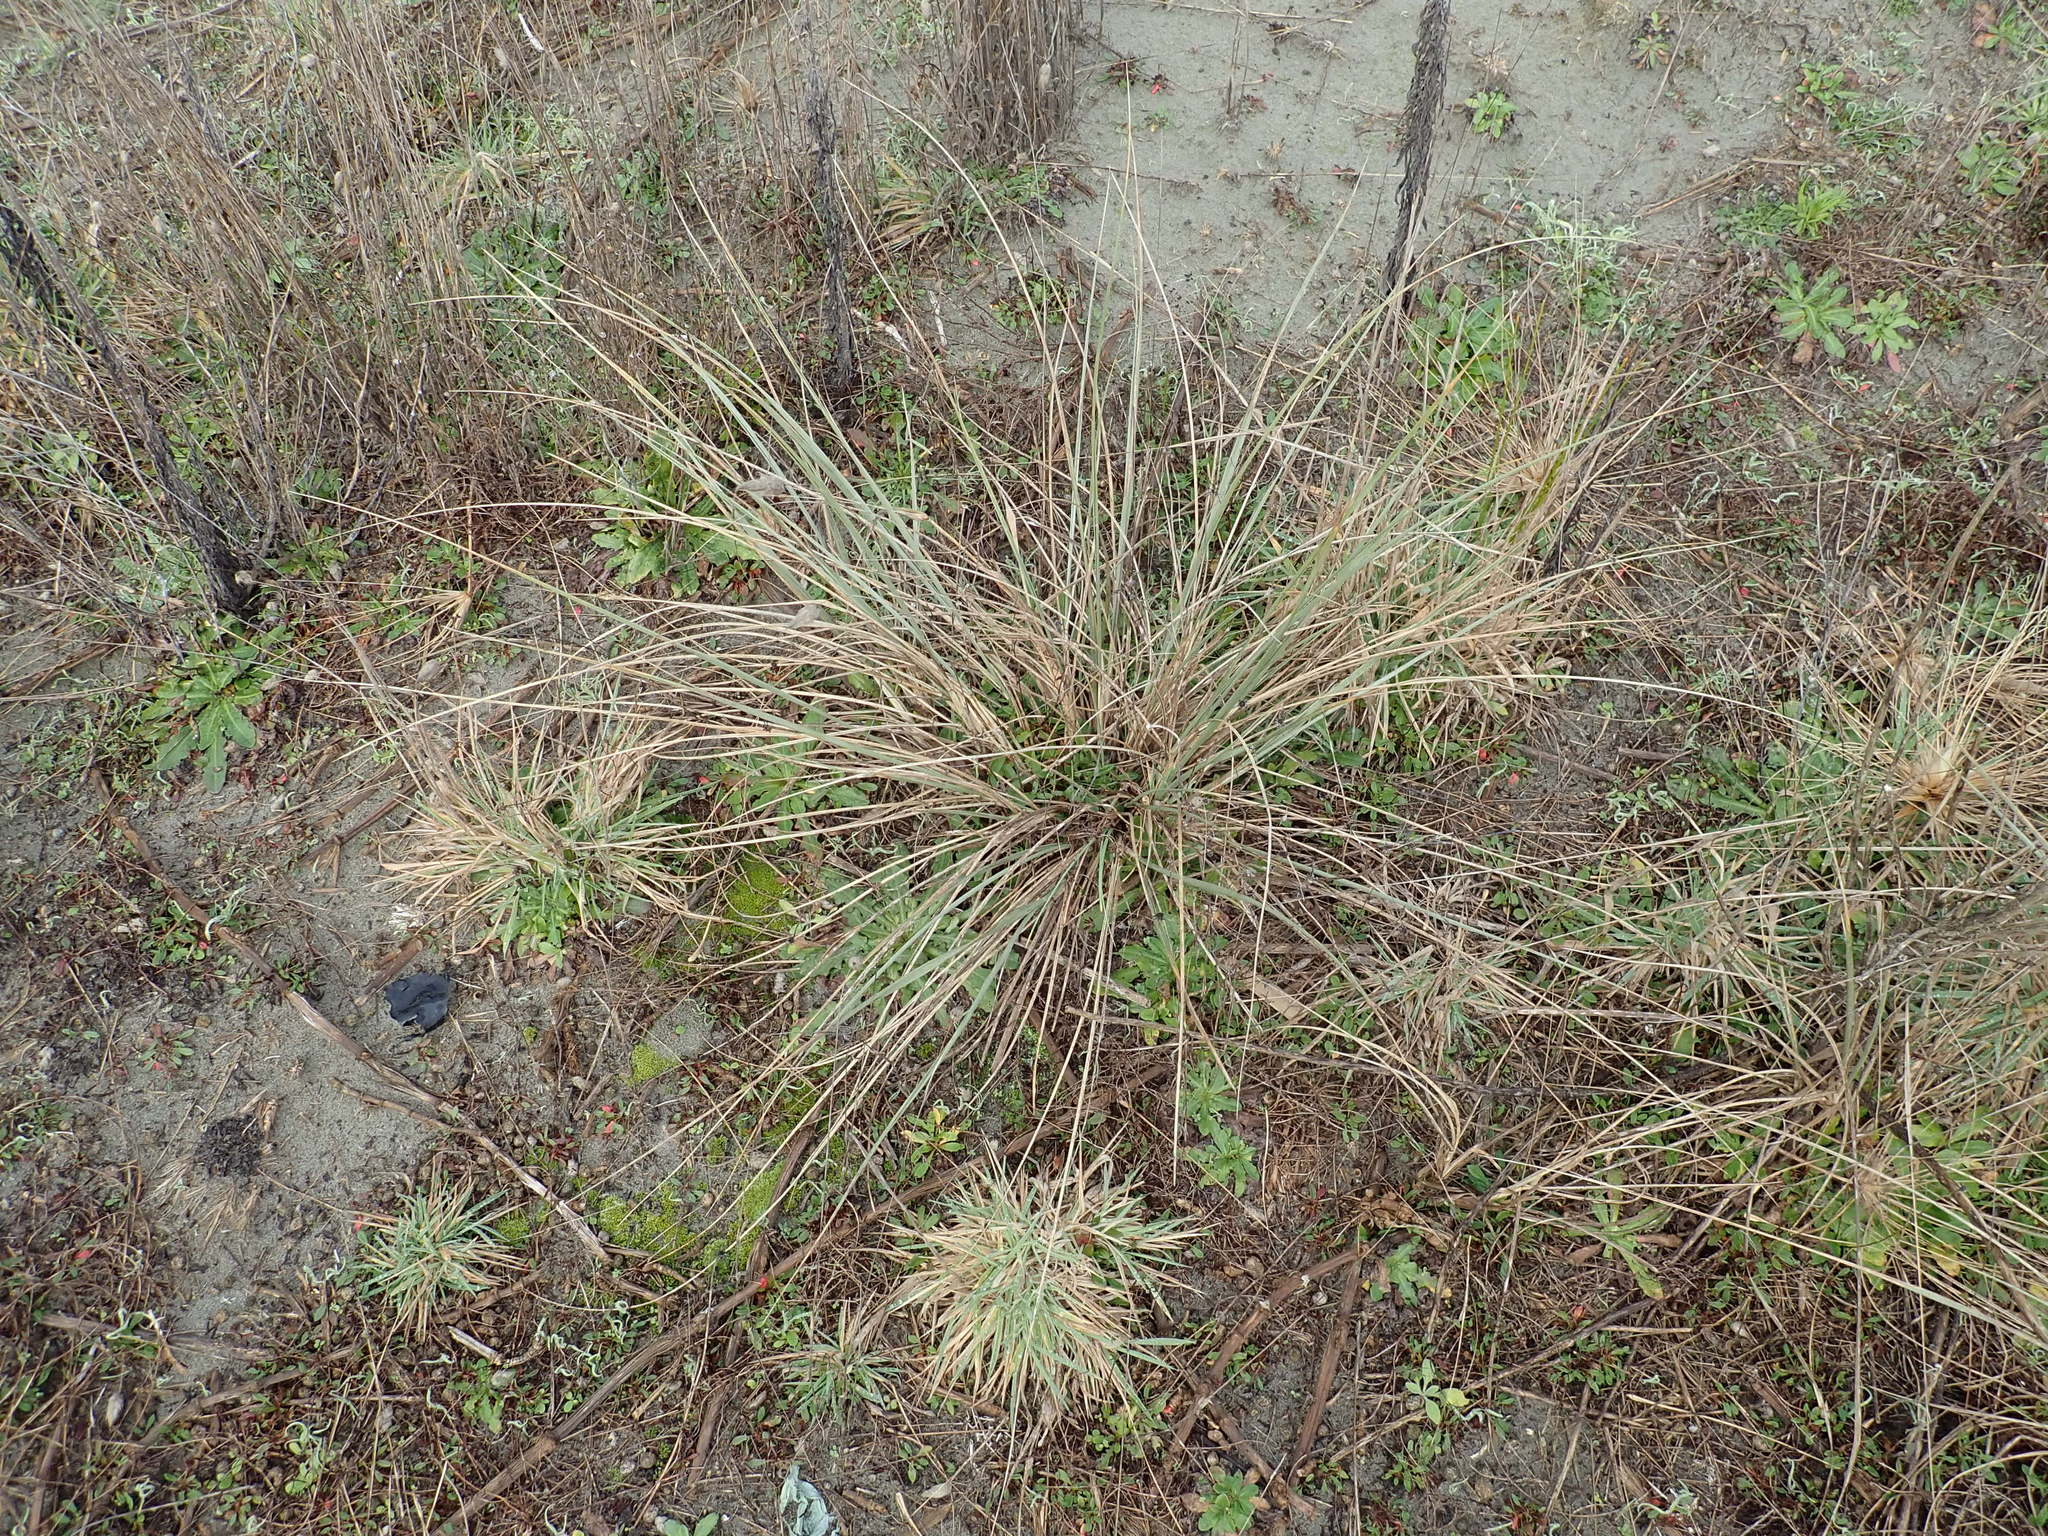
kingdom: Plantae
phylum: Tracheophyta
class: Liliopsida
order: Poales
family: Poaceae
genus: Spinifex
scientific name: Spinifex sericeus
